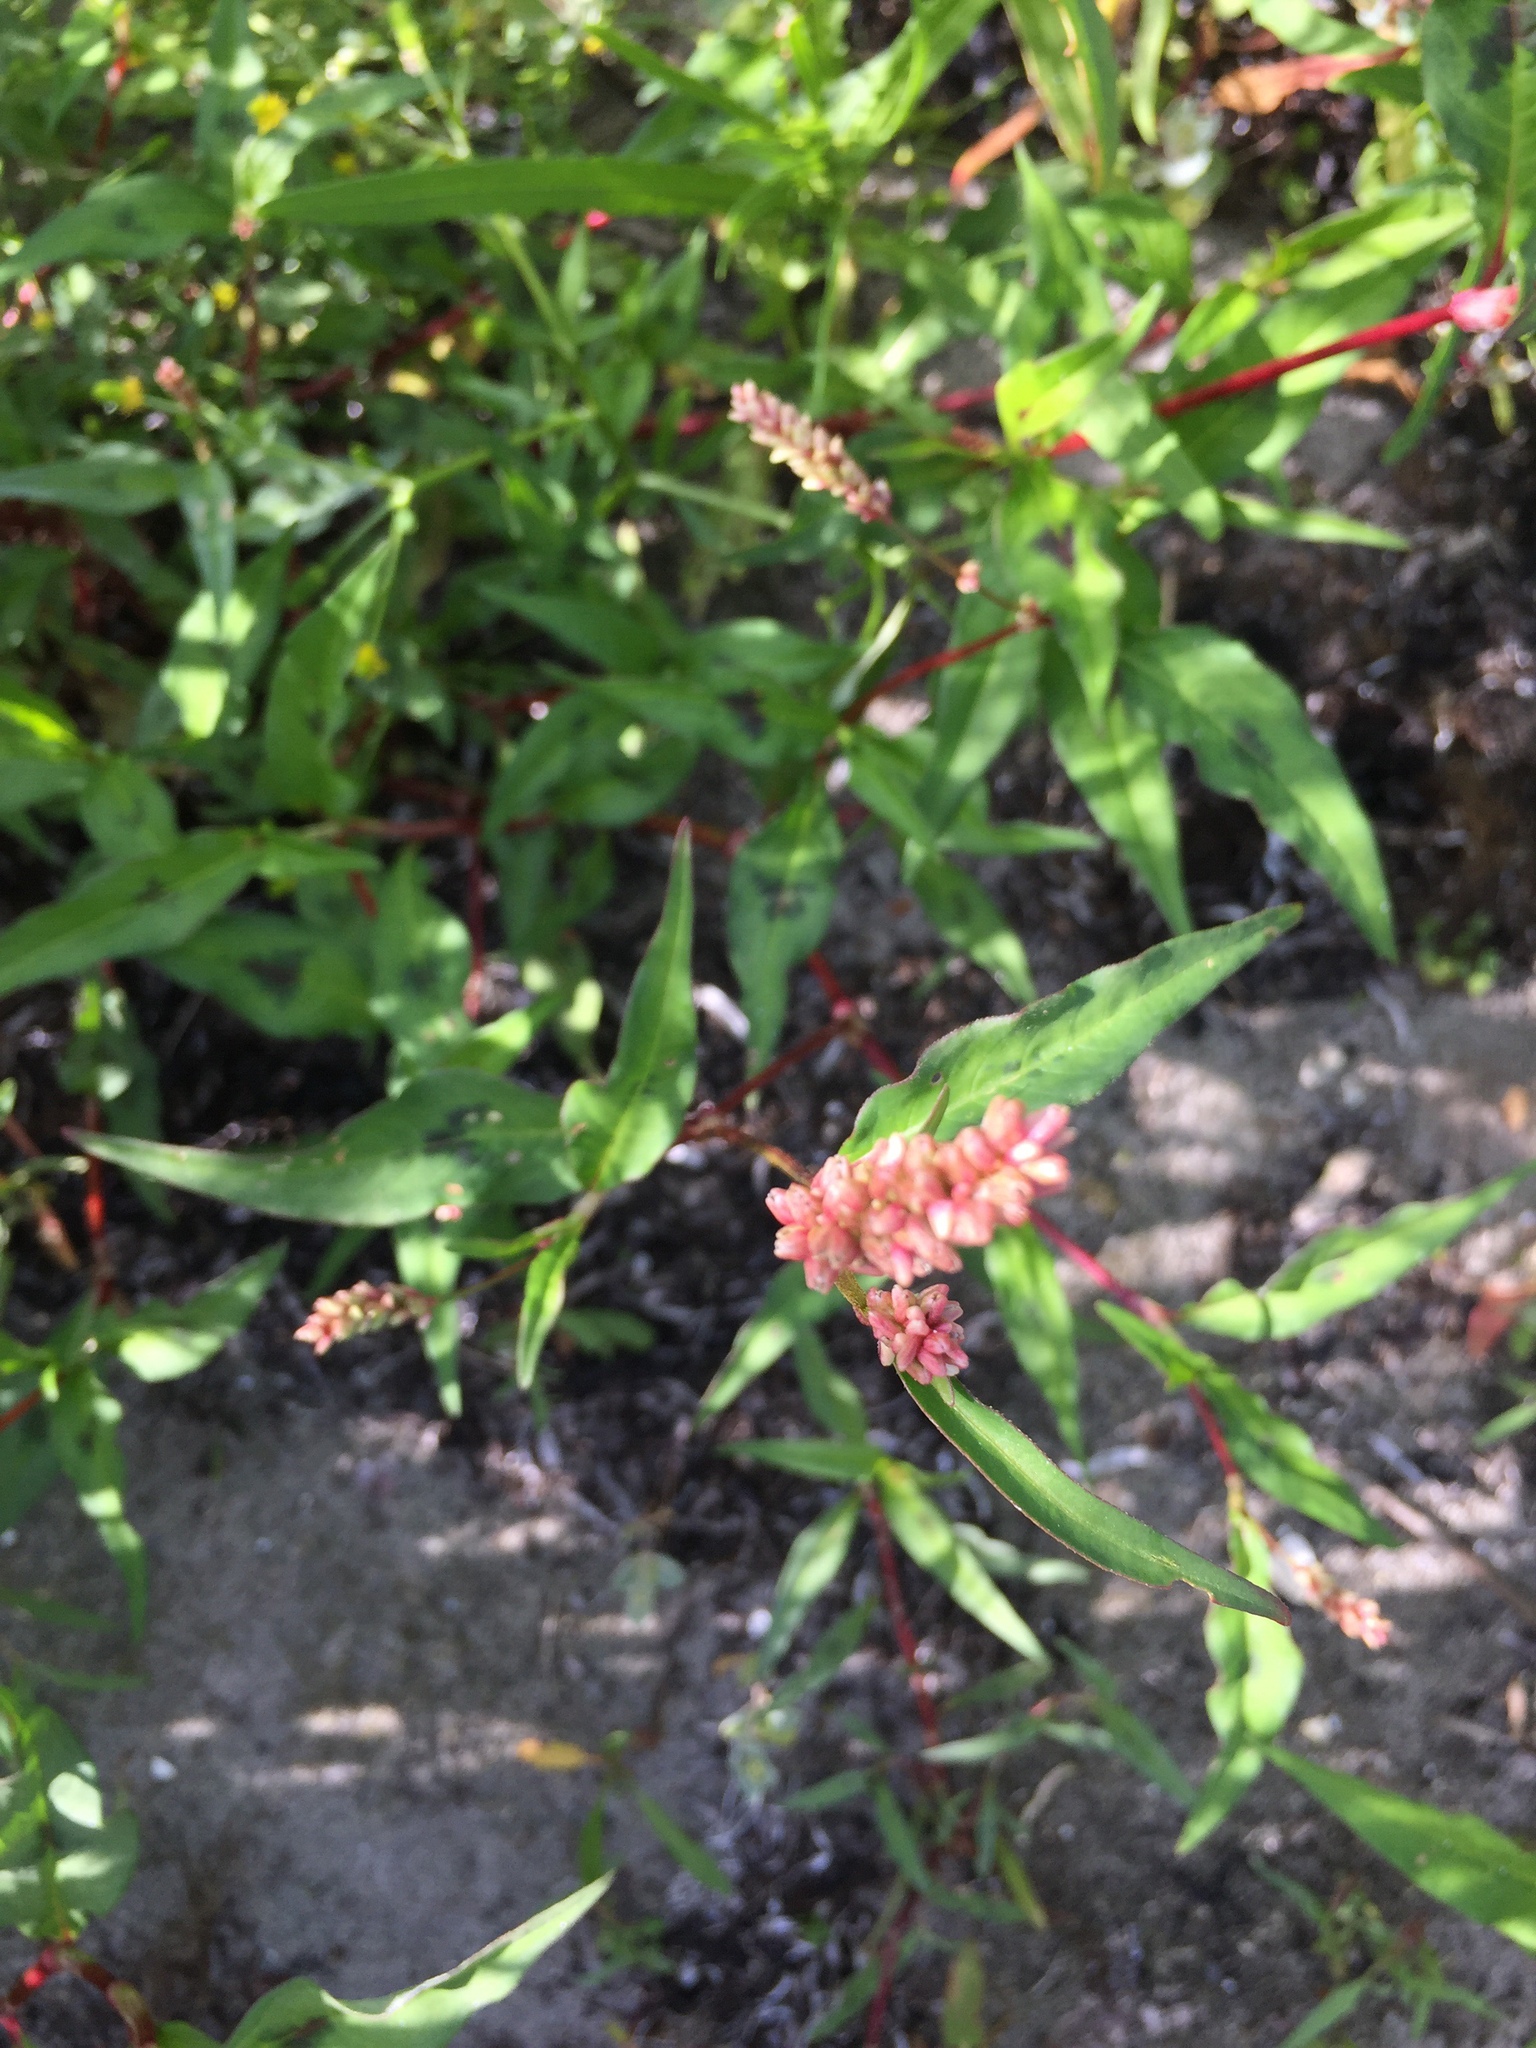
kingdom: Plantae
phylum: Tracheophyta
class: Magnoliopsida
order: Caryophyllales
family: Polygonaceae
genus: Persicaria
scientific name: Persicaria maculosa
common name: Redshank
